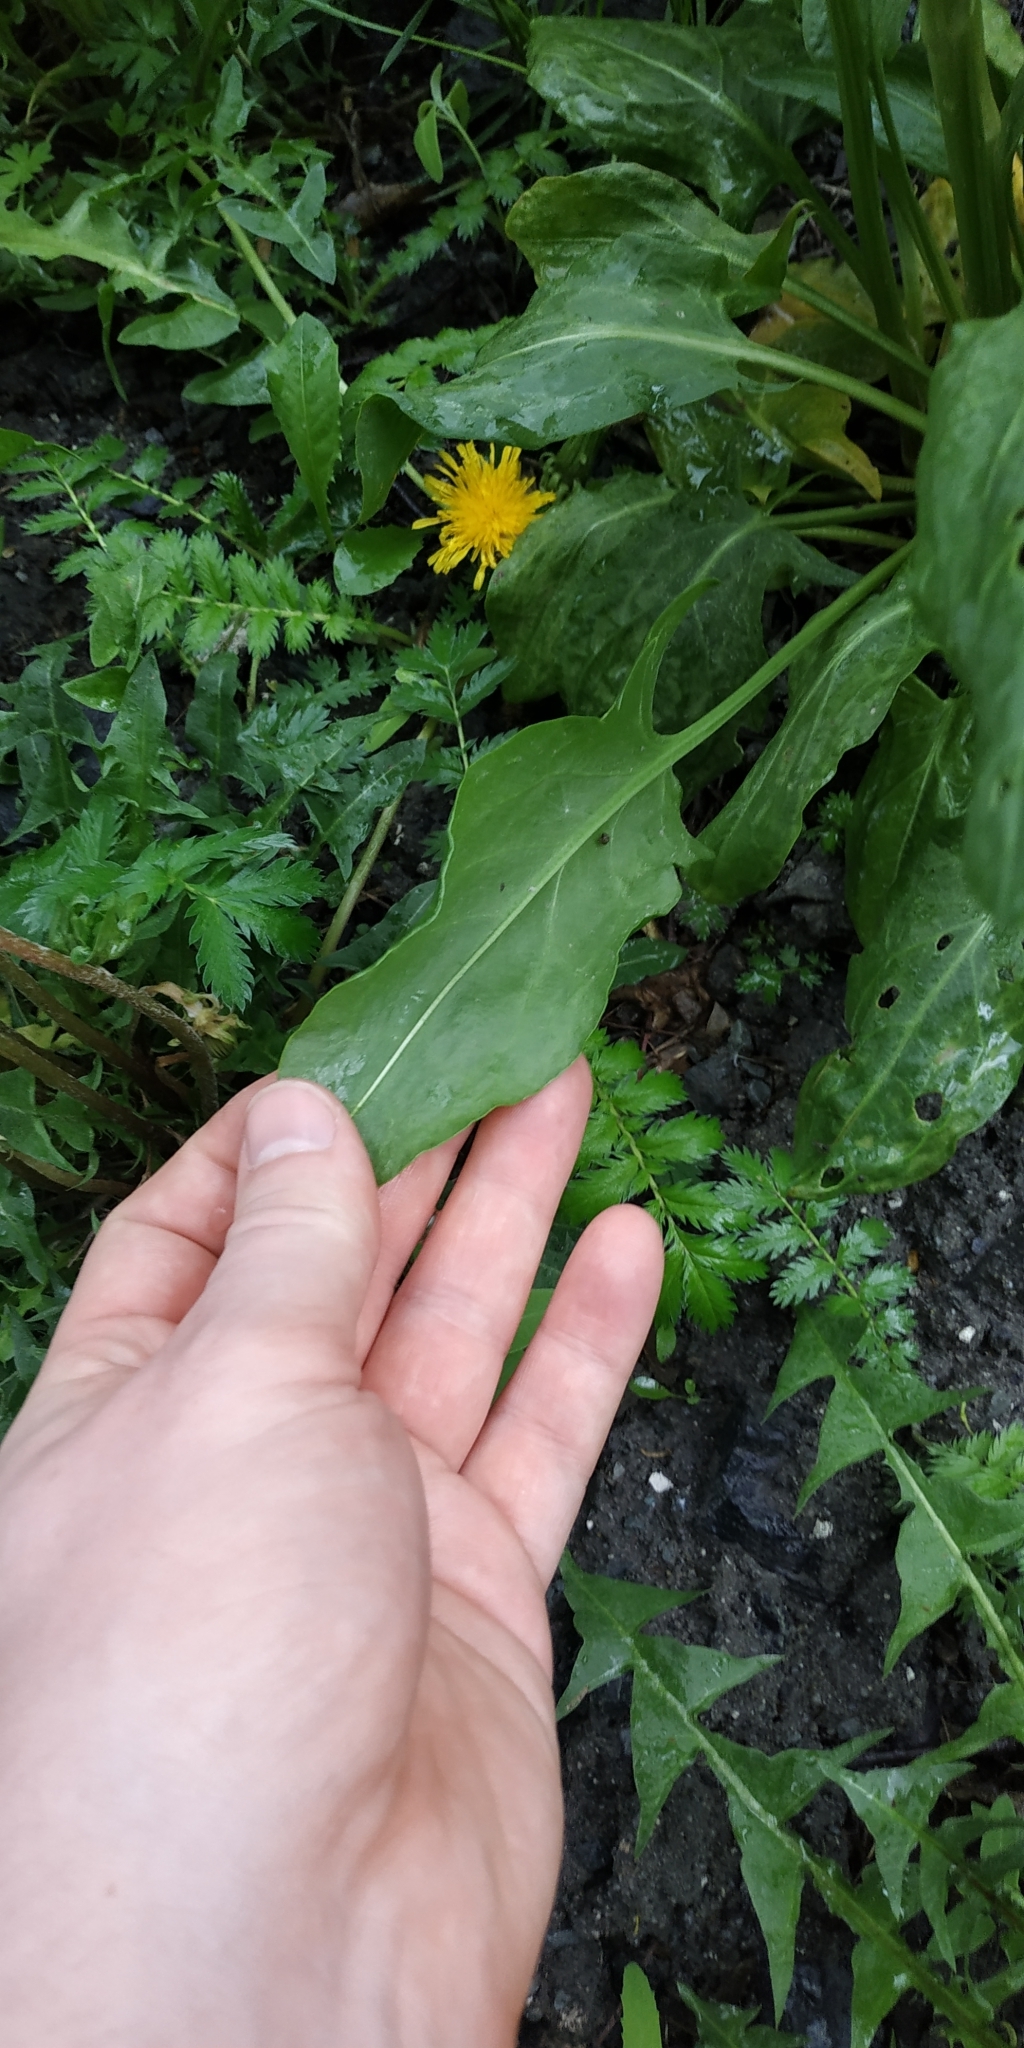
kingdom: Plantae
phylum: Tracheophyta
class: Magnoliopsida
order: Caryophyllales
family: Polygonaceae
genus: Rumex
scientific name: Rumex rugosus
